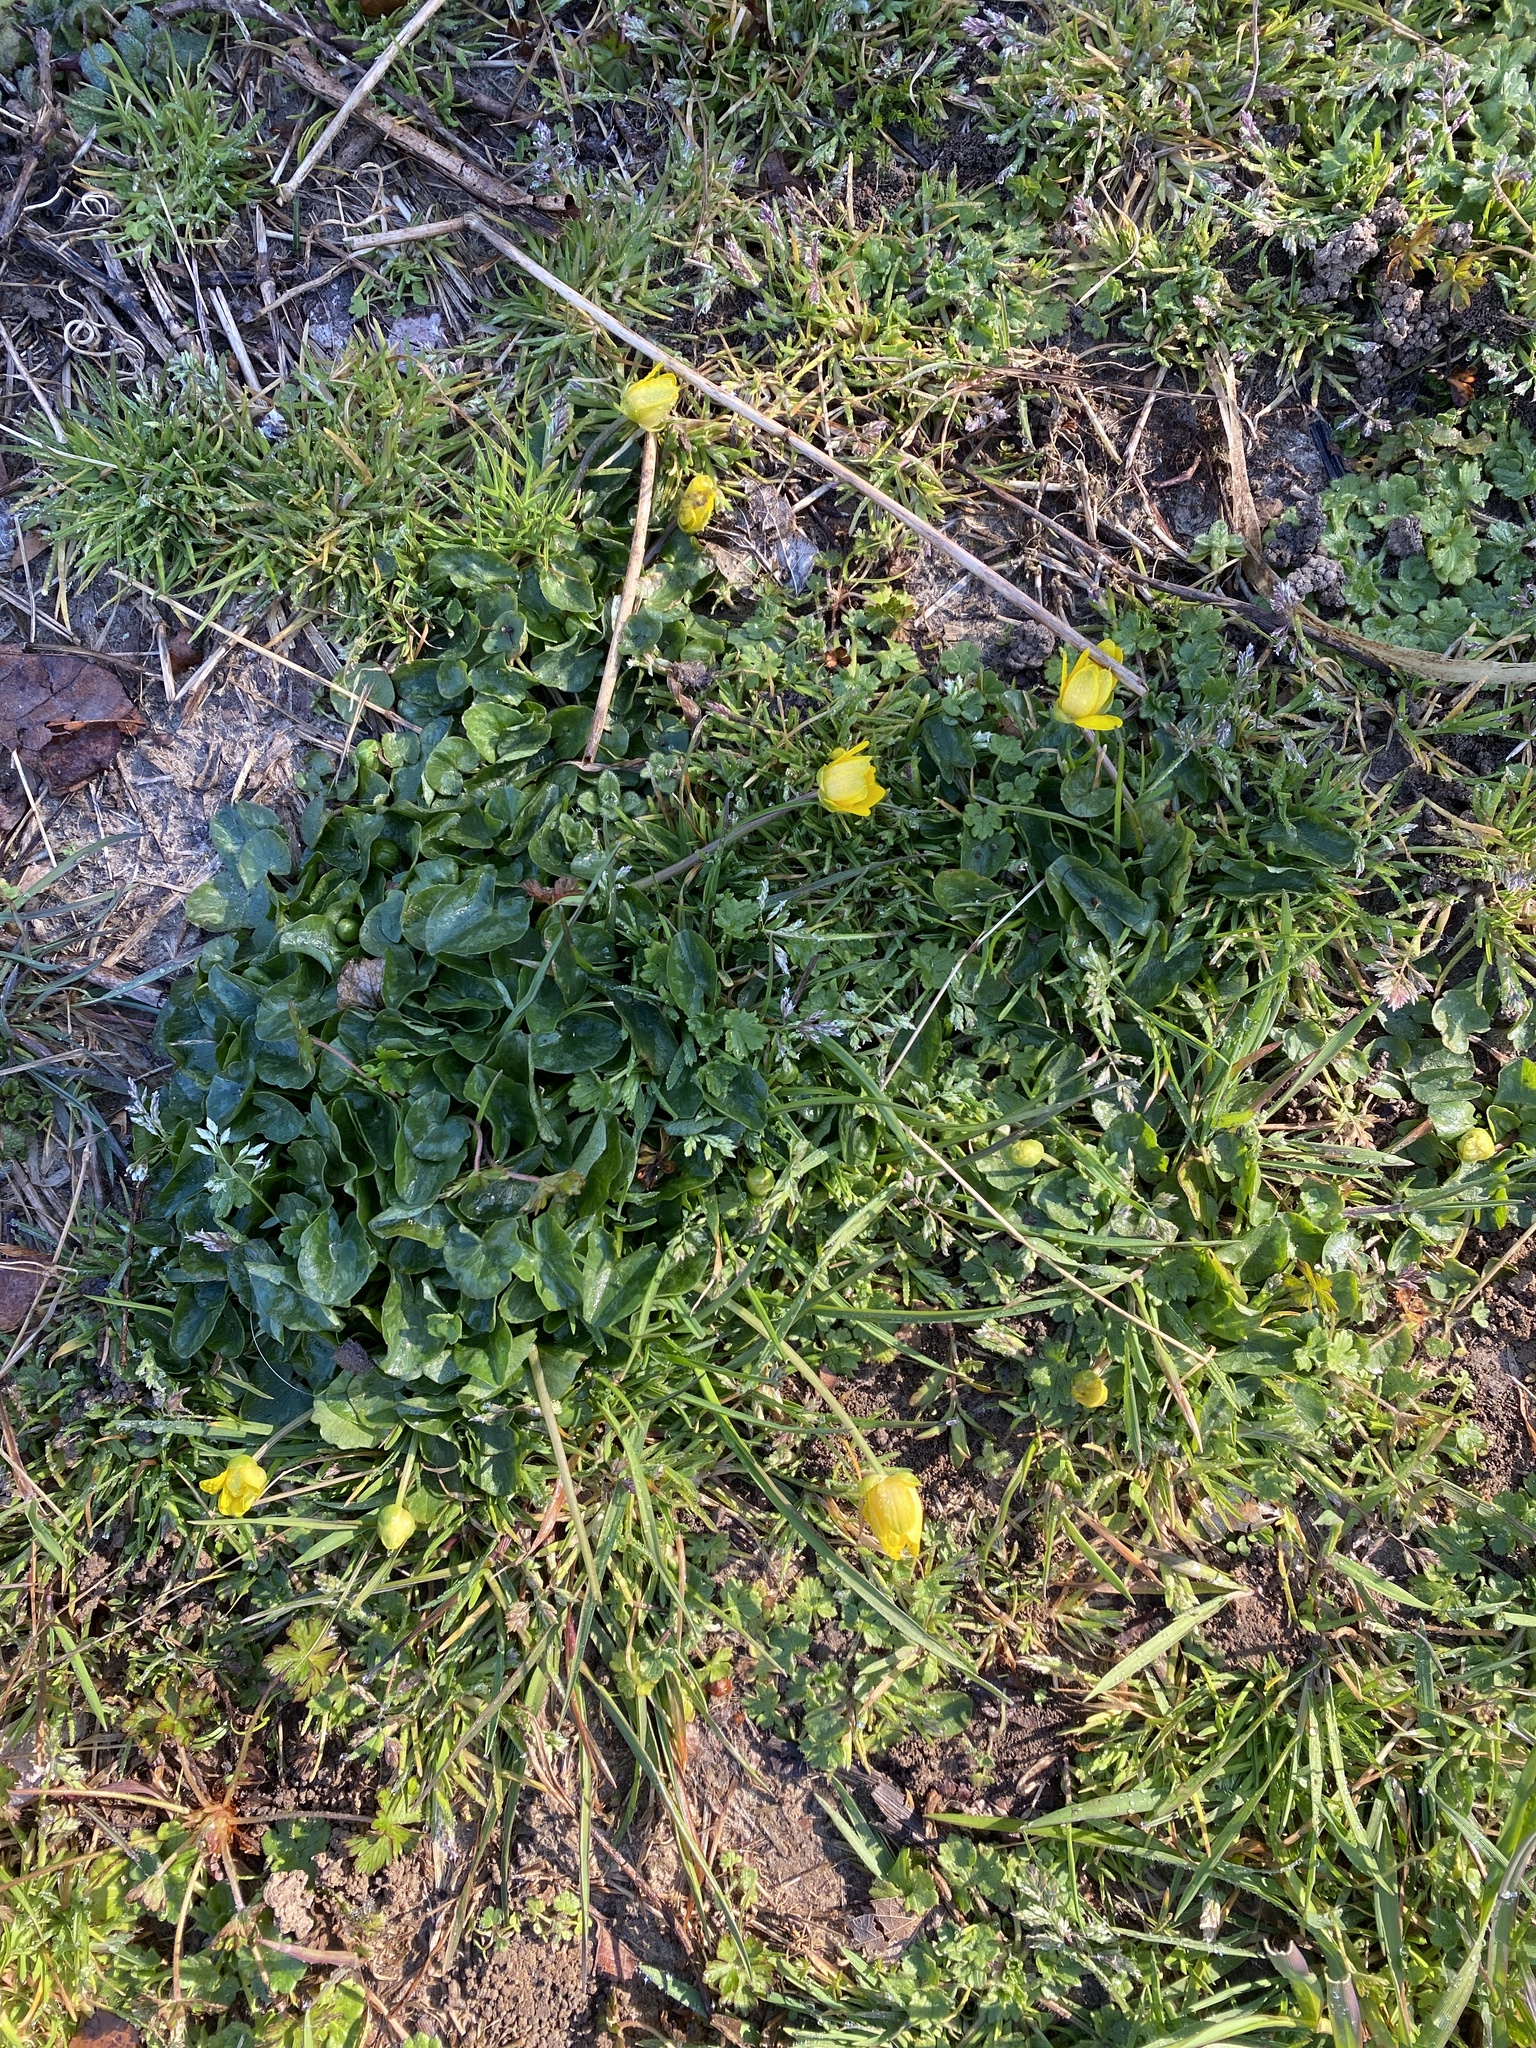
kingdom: Plantae
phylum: Tracheophyta
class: Magnoliopsida
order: Ranunculales
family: Ranunculaceae
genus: Ficaria
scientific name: Ficaria verna
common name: Lesser celandine
